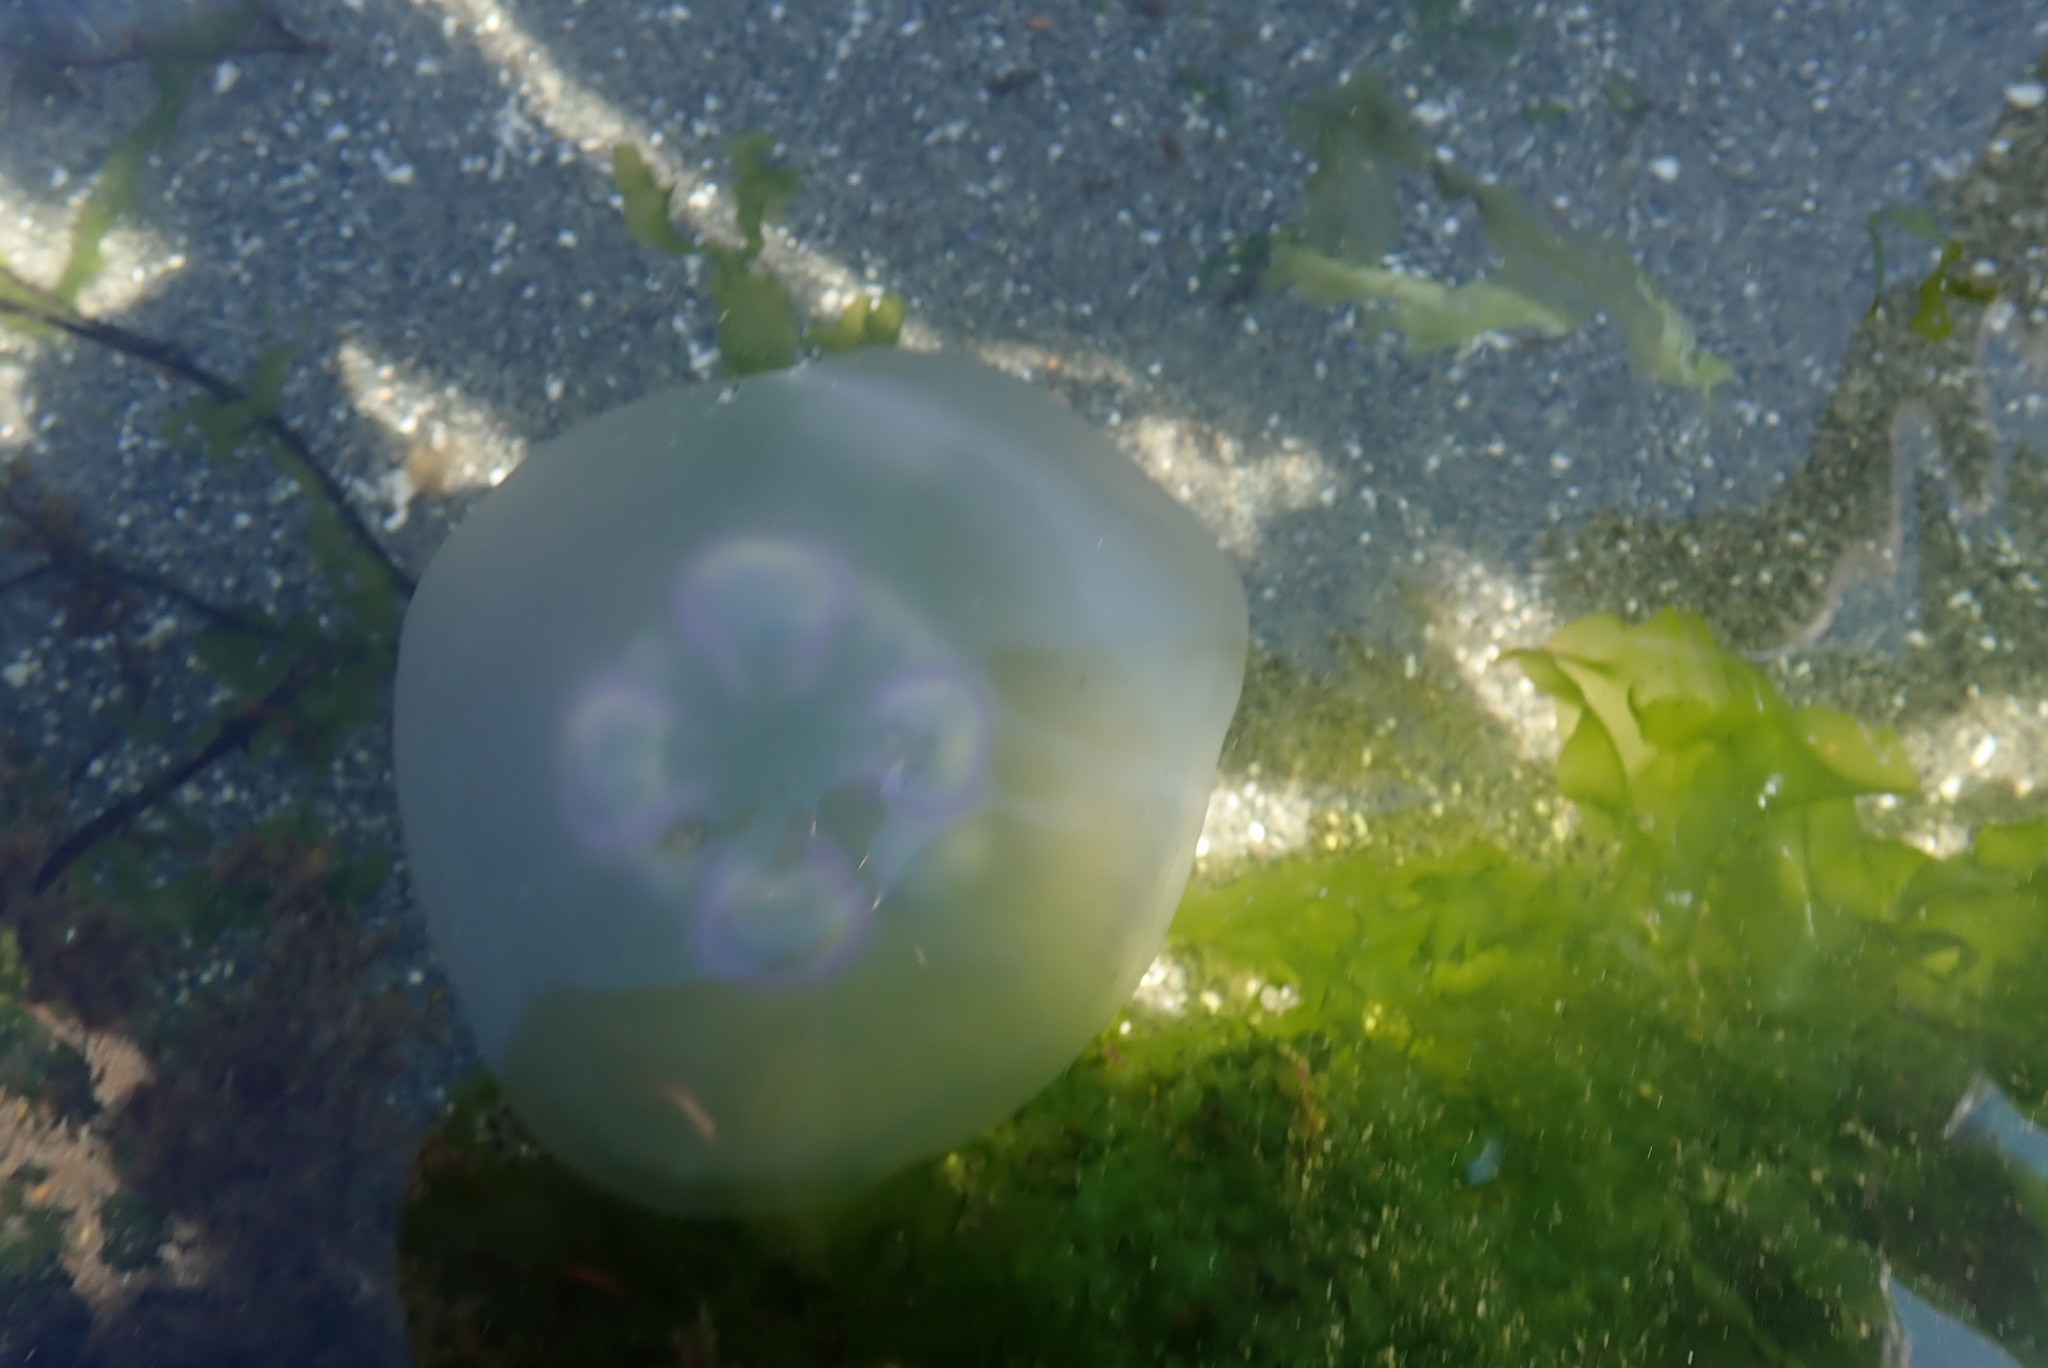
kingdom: Animalia
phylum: Cnidaria
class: Scyphozoa
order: Semaeostomeae
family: Ulmaridae
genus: Aurelia
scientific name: Aurelia labiata
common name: Pacific moon jelly
